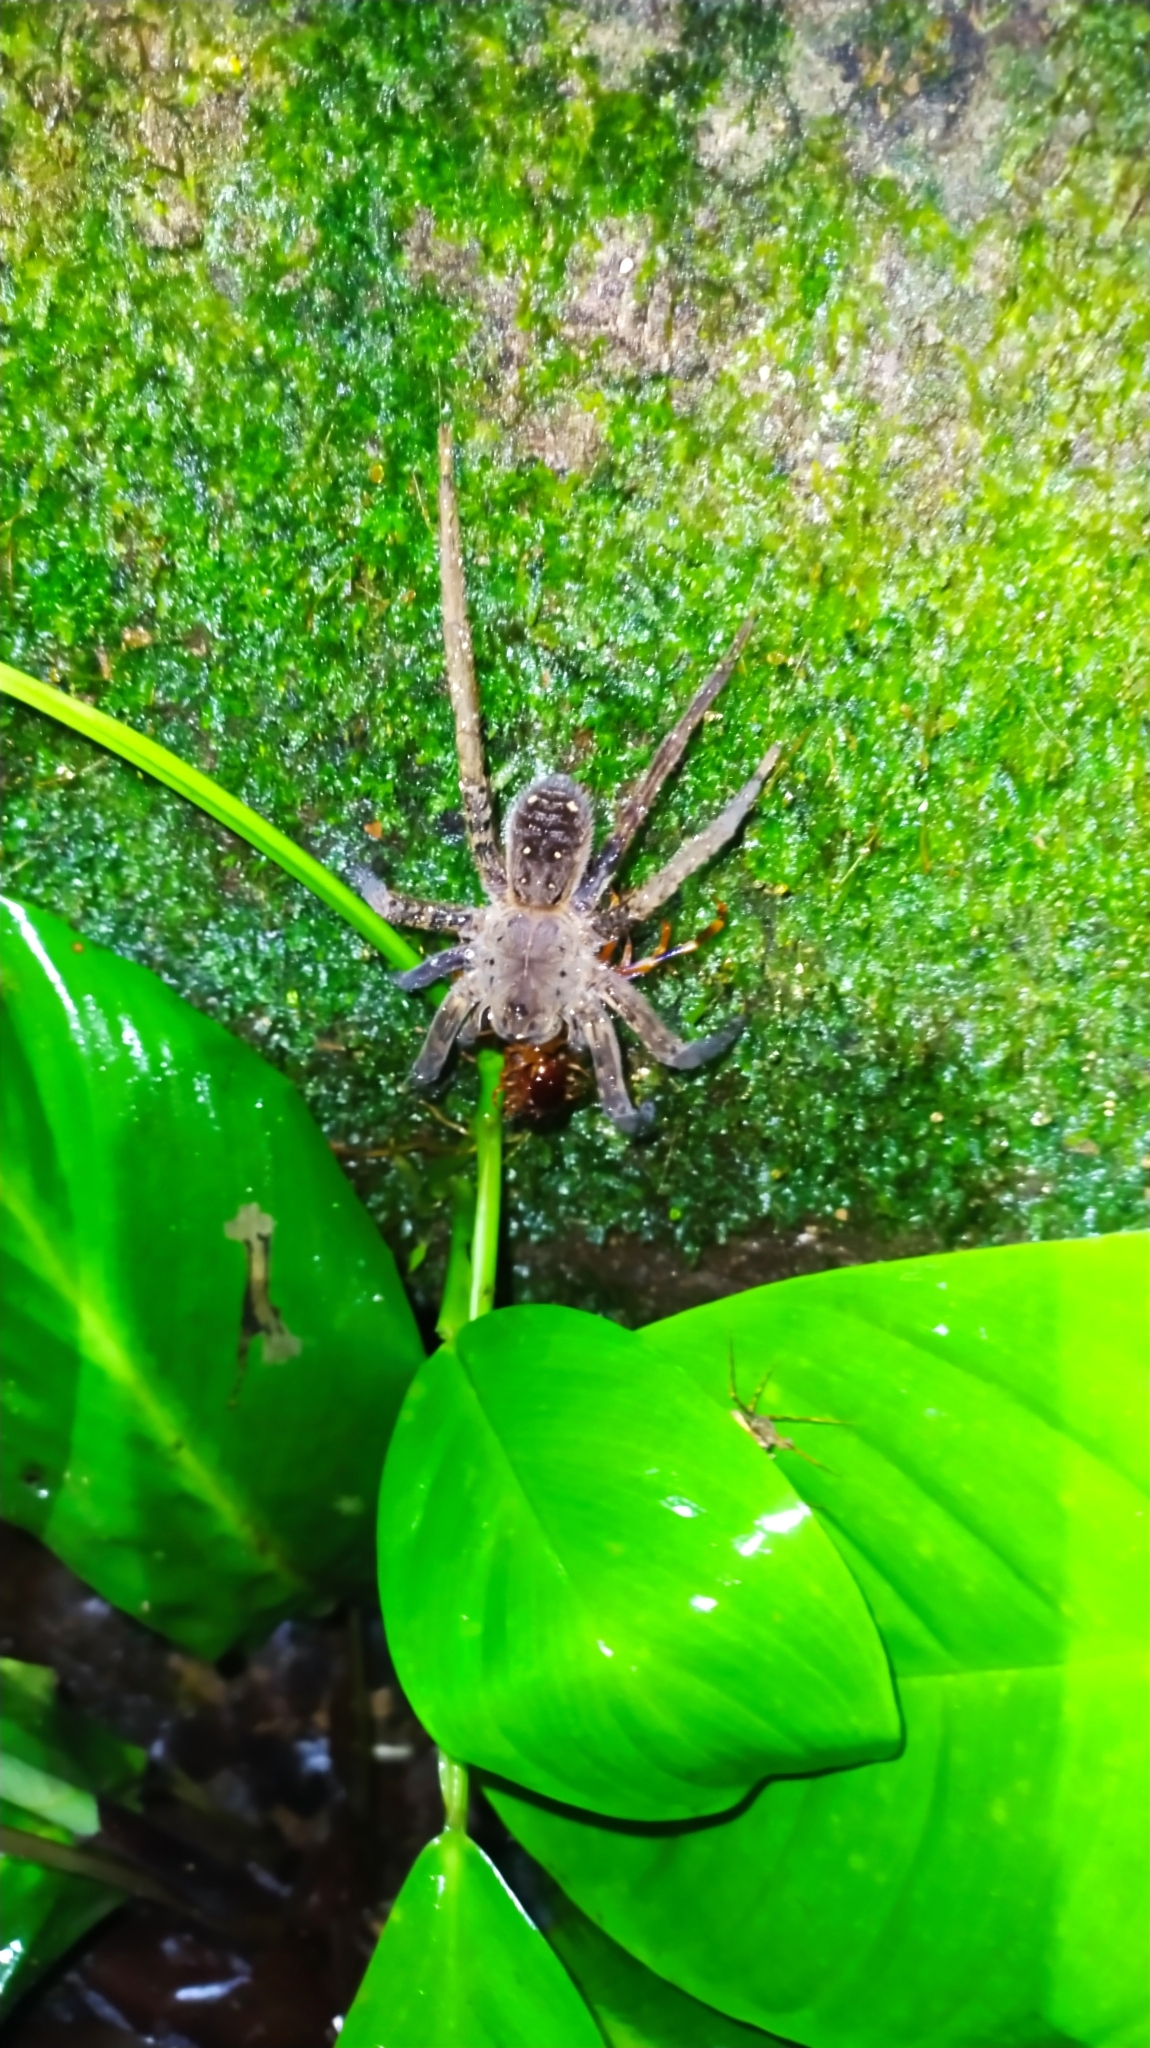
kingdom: Animalia
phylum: Arthropoda
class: Arachnida
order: Araneae
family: Ctenidae
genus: Ancylometes
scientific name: Ancylometes
